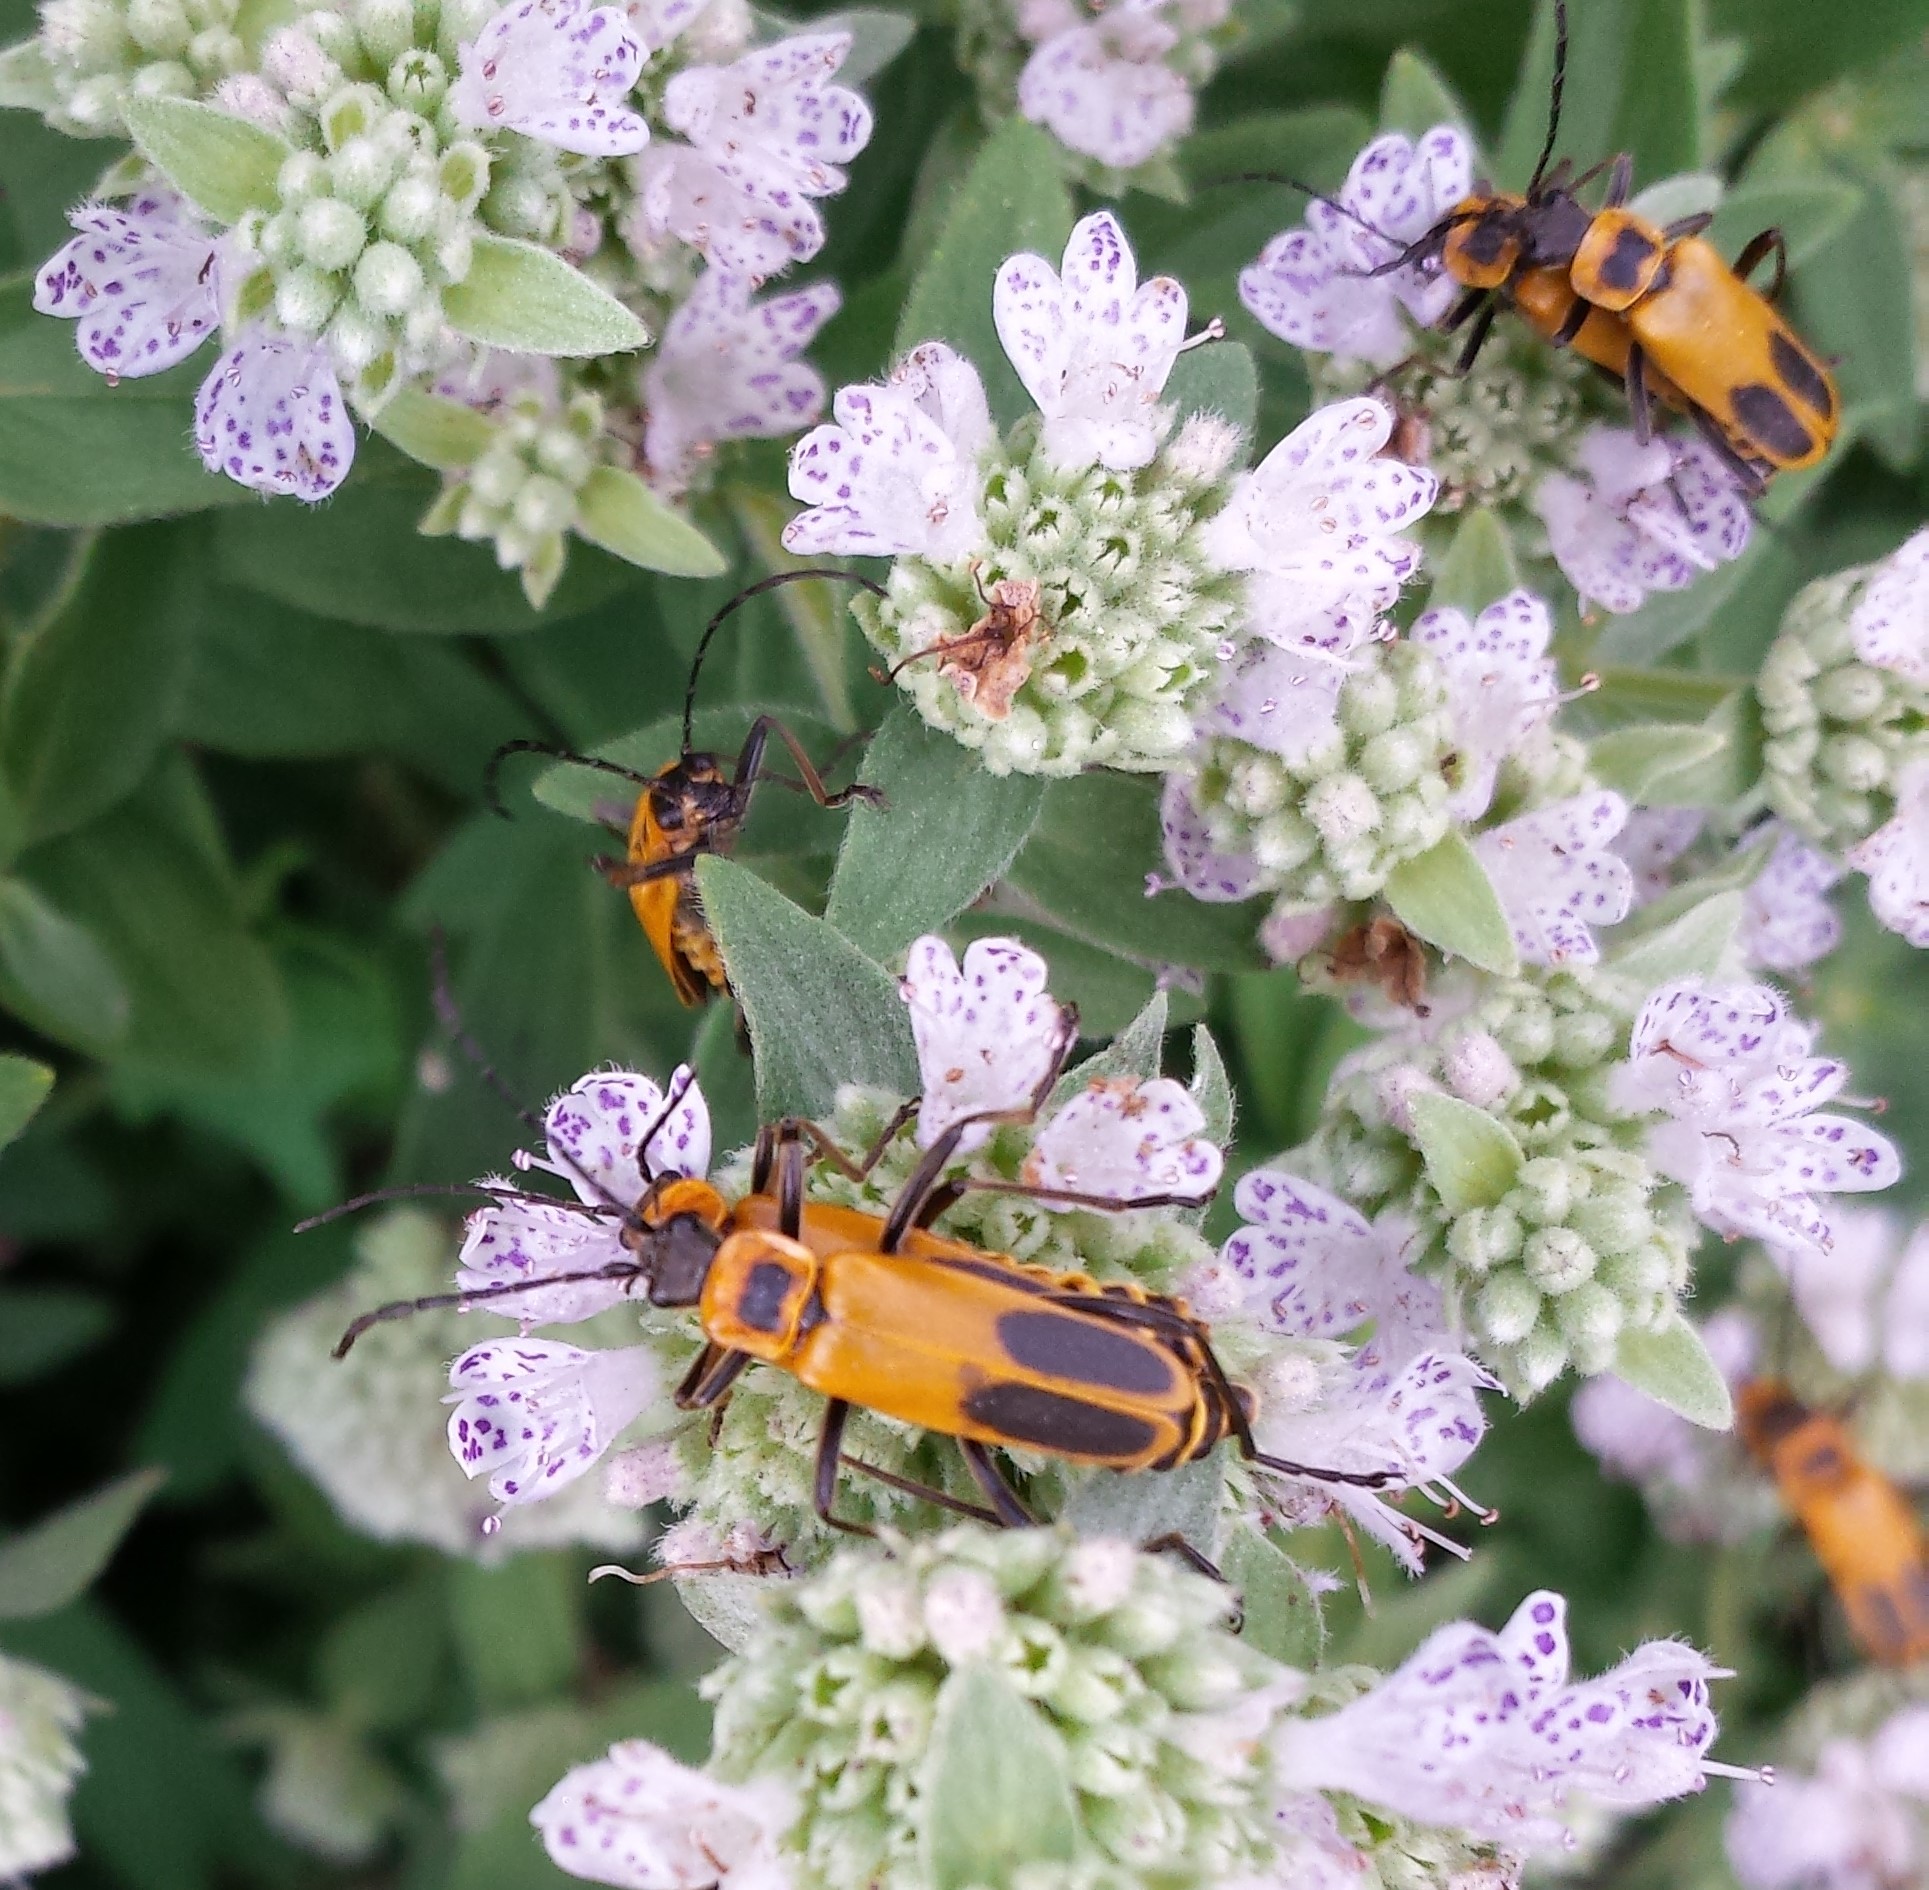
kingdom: Animalia
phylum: Arthropoda
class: Insecta
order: Coleoptera
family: Cantharidae
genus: Chauliognathus
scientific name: Chauliognathus pensylvanicus
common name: Goldenrod soldier beetle
